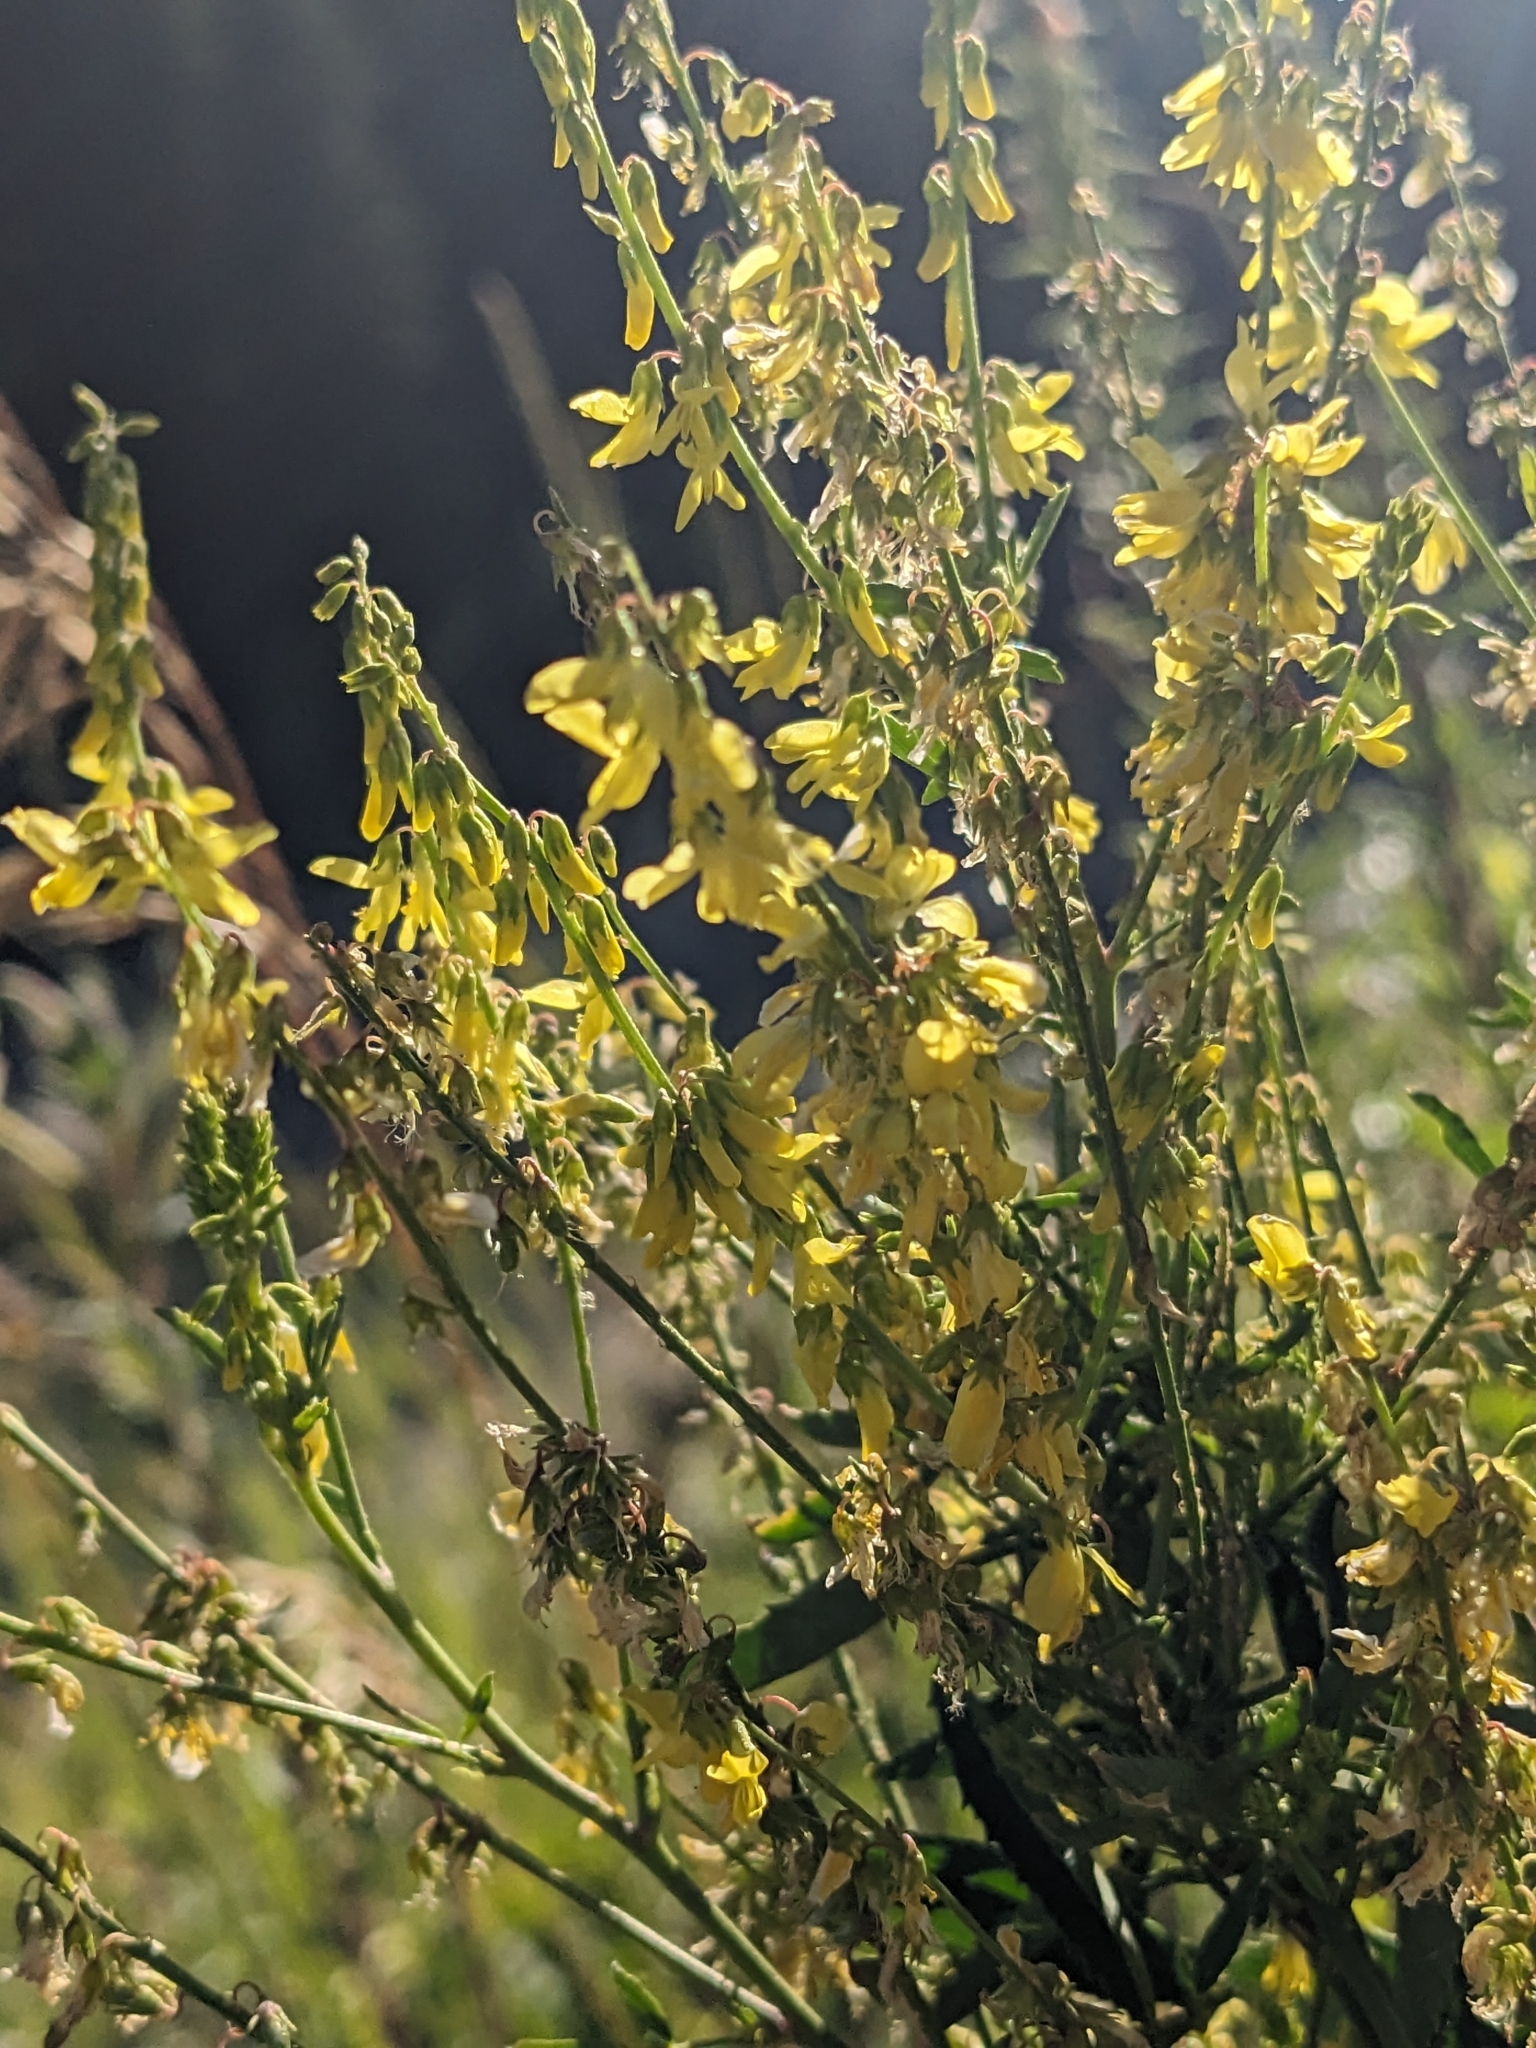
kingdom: Plantae
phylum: Tracheophyta
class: Magnoliopsida
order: Fabales
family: Fabaceae
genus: Melilotus
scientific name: Melilotus officinalis
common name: Sweetclover
